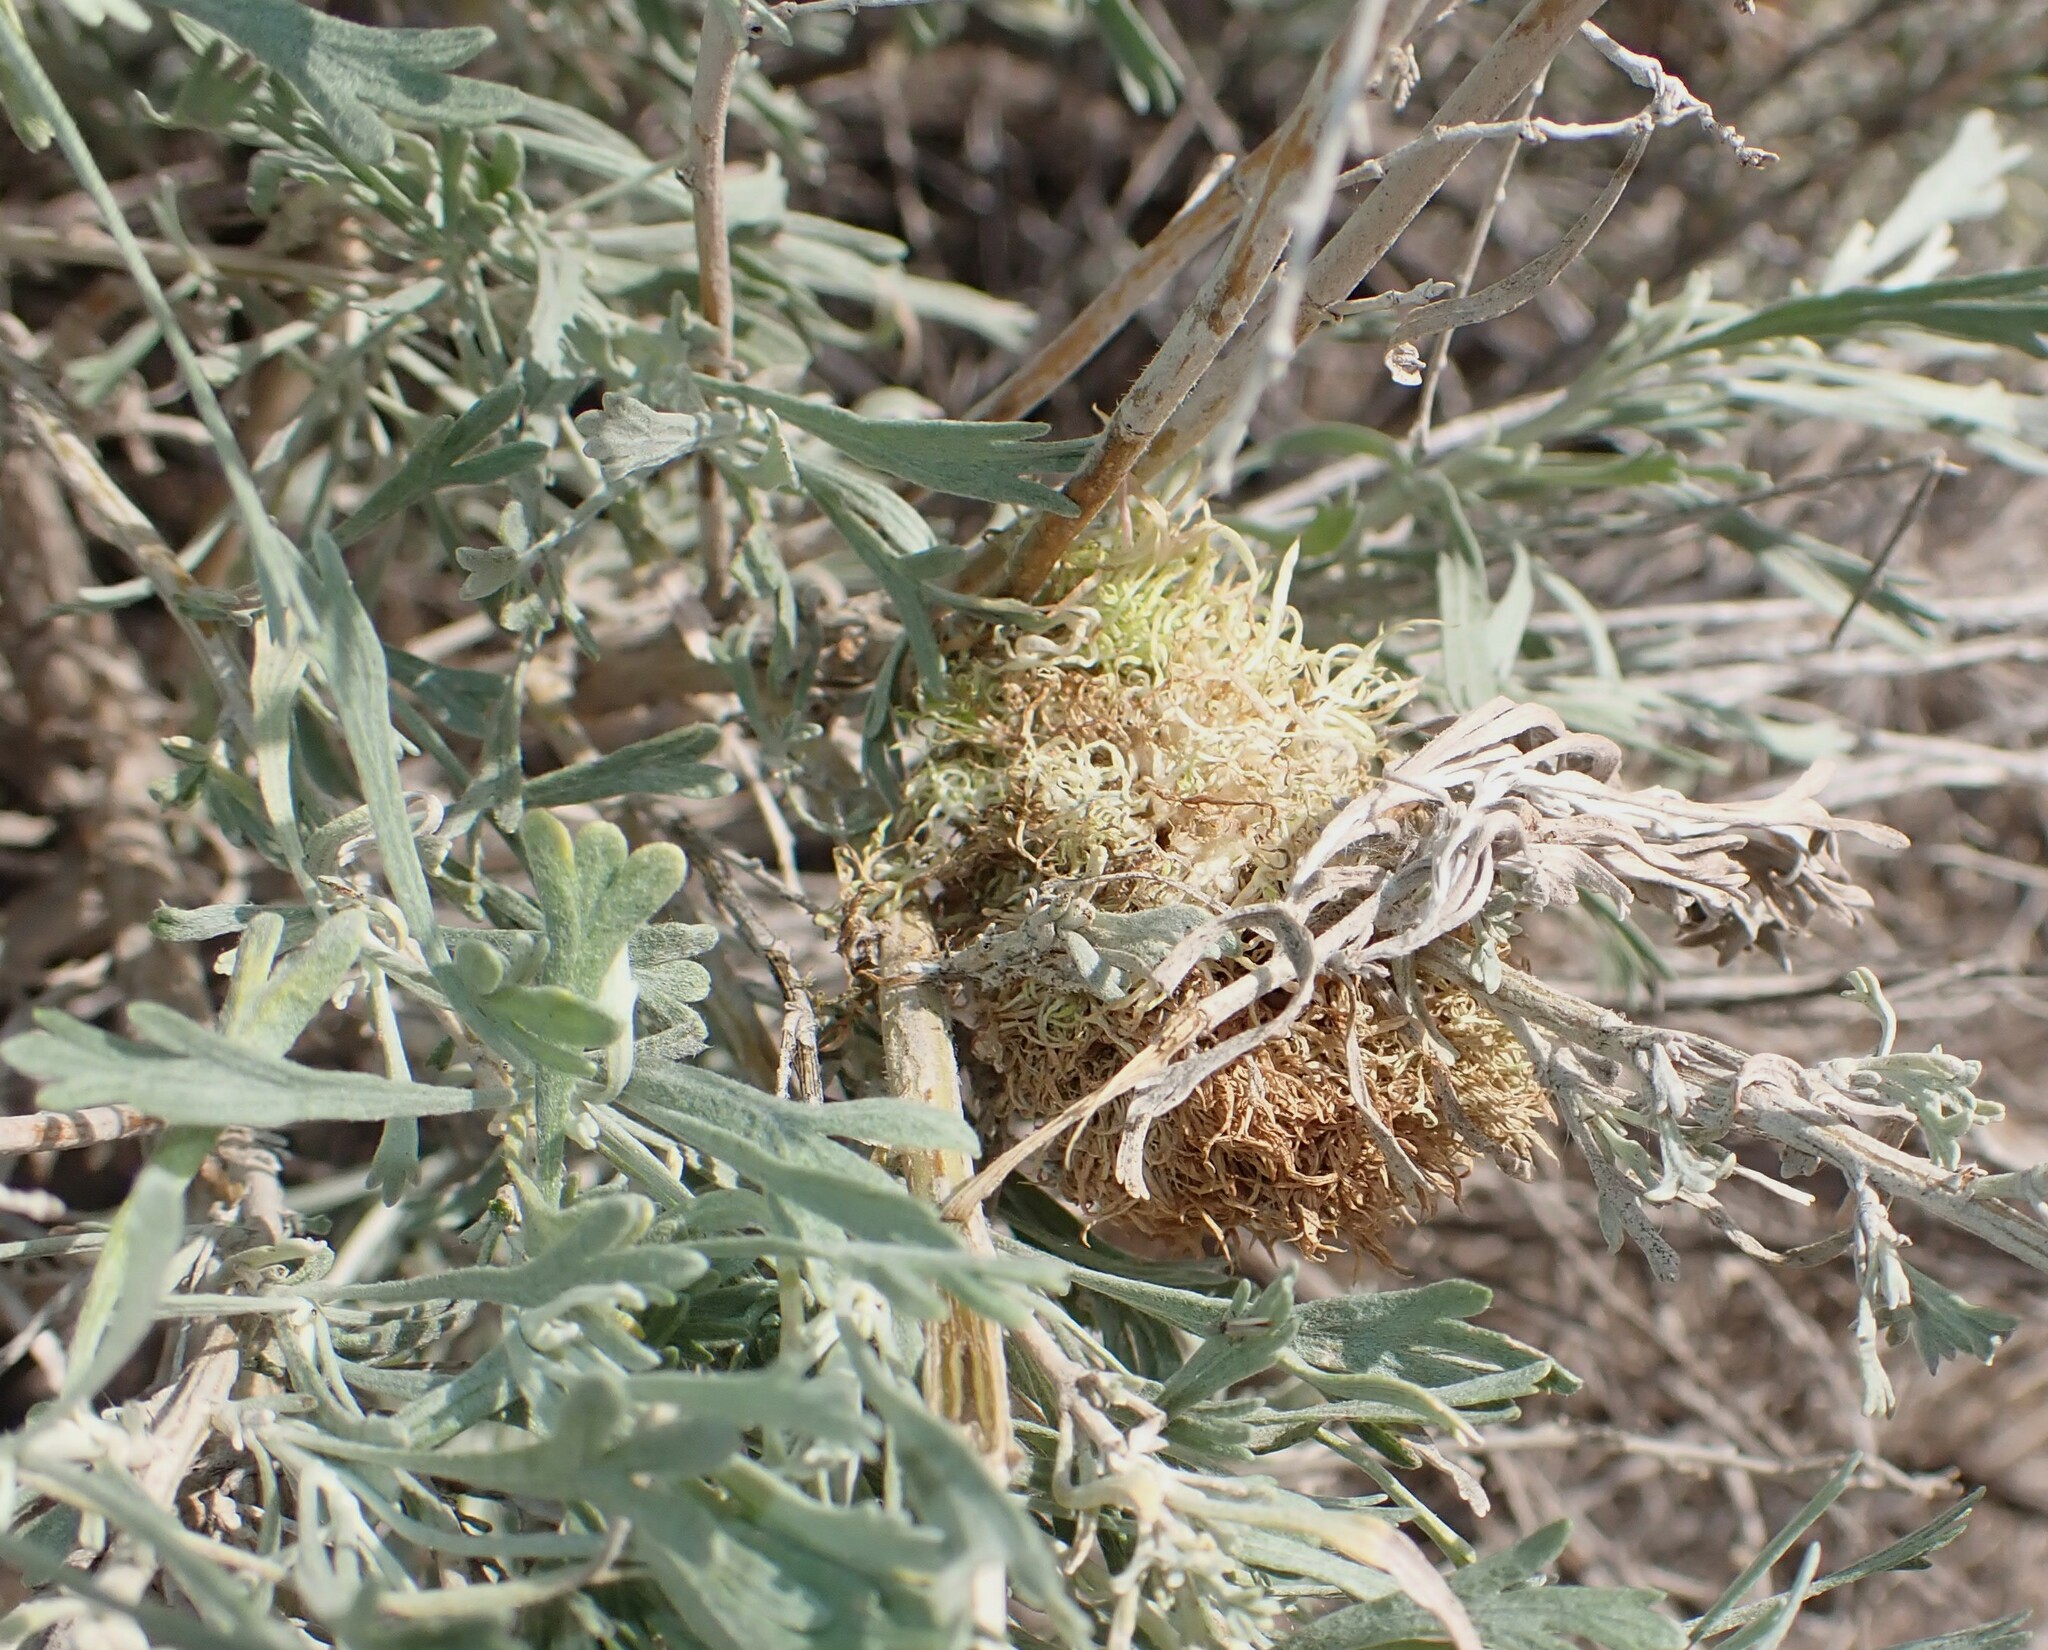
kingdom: Animalia
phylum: Arthropoda
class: Insecta
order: Diptera
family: Cecidomyiidae
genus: Rhopalomyia
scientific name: Rhopalomyia medusa
